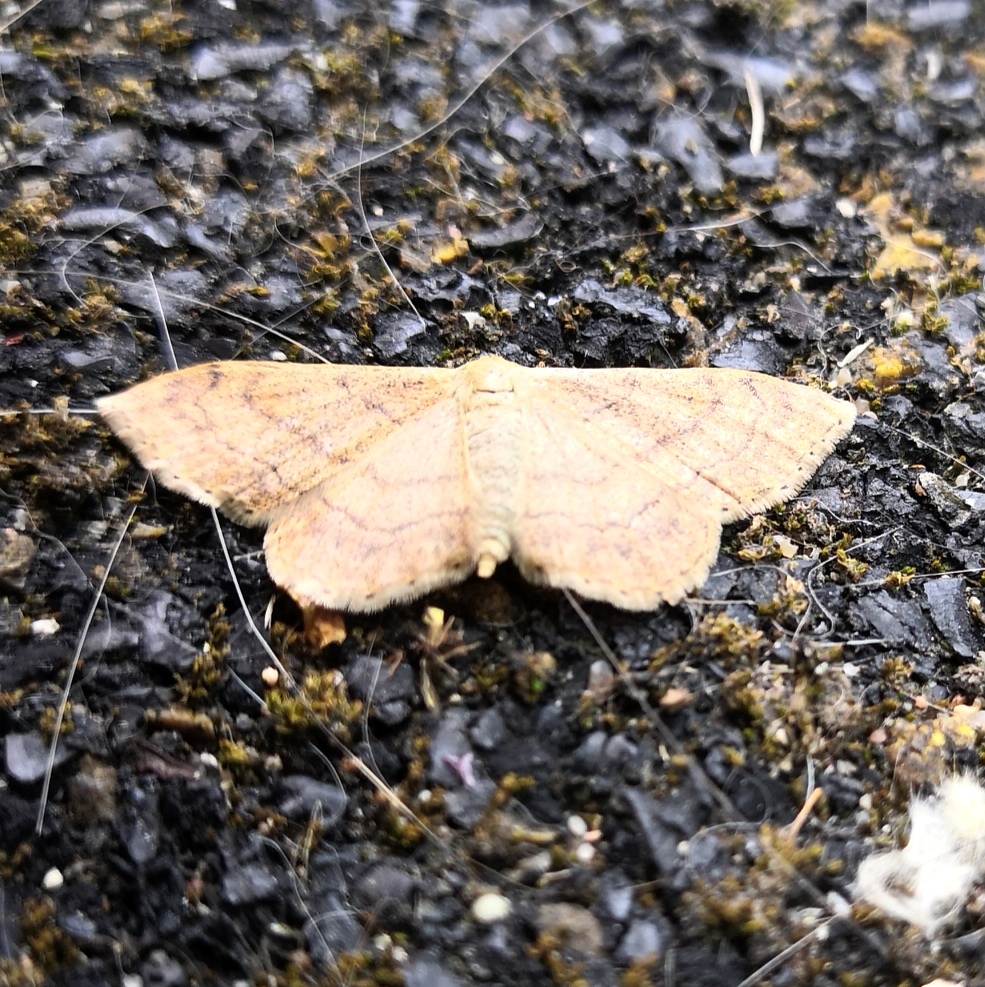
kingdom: Animalia
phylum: Arthropoda
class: Insecta
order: Lepidoptera
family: Geometridae
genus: Idaea
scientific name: Idaea aversata
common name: Riband wave
